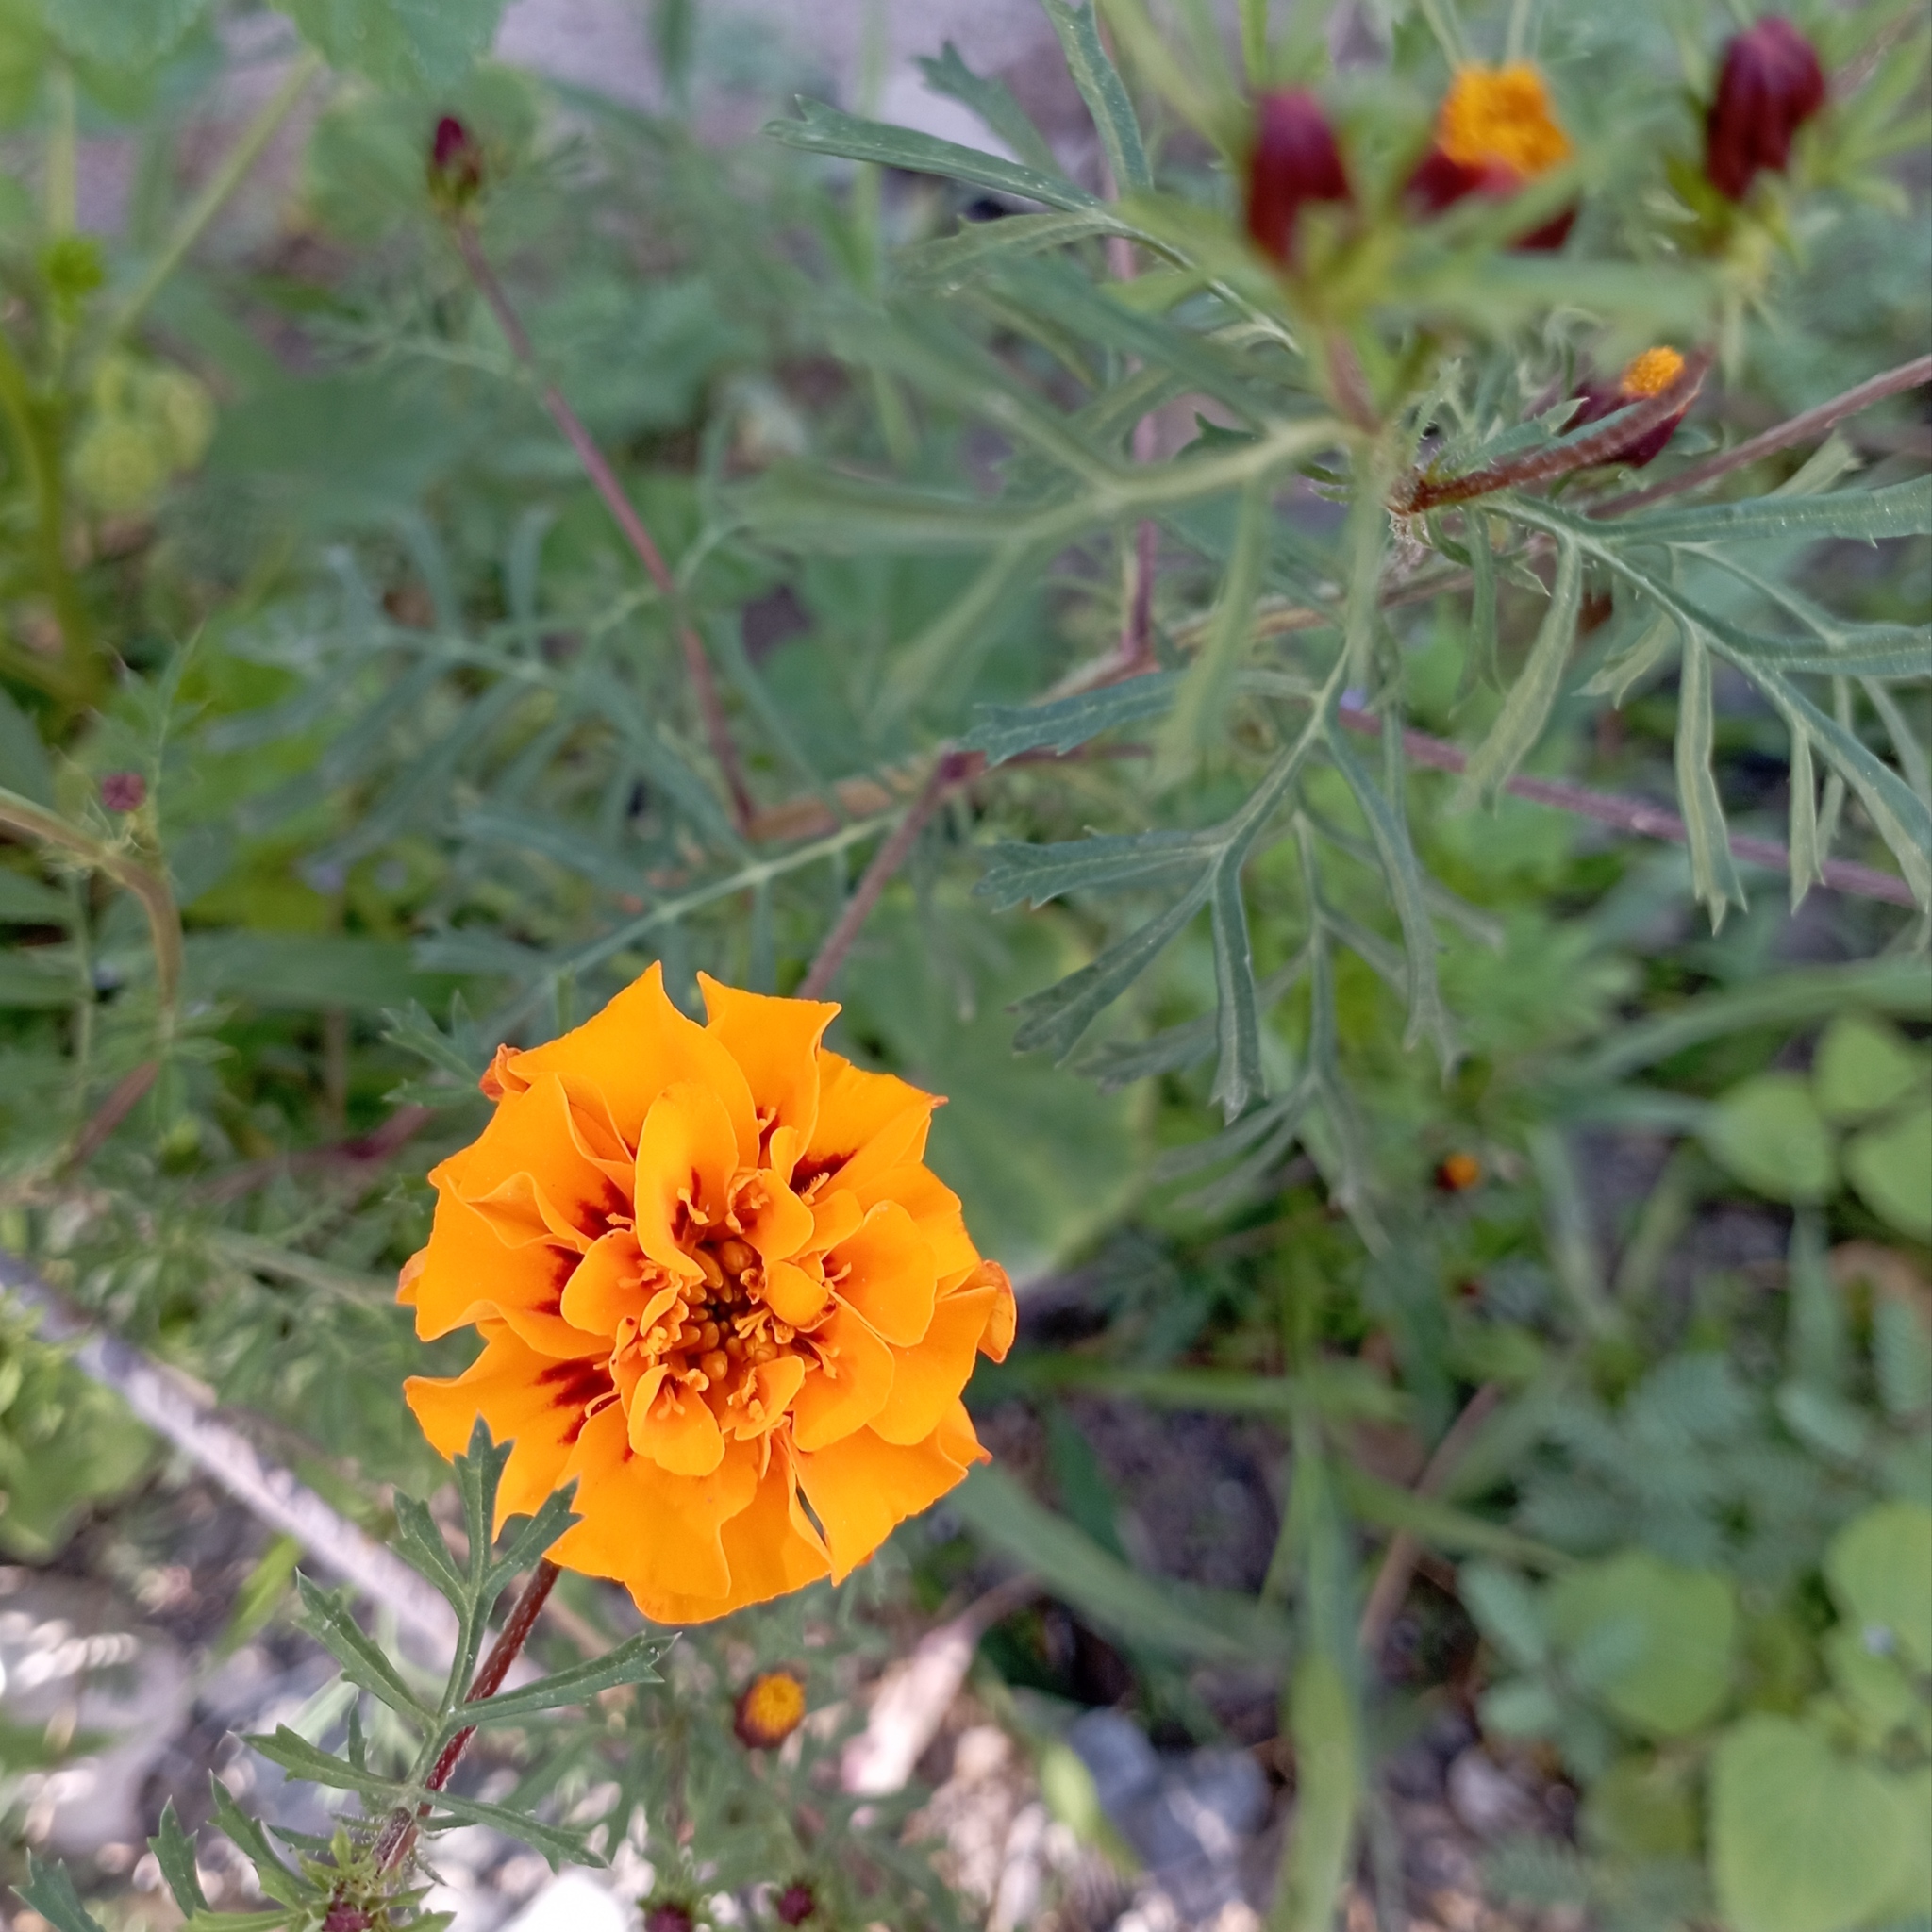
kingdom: Plantae
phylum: Tracheophyta
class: Magnoliopsida
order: Asterales
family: Asteraceae
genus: Tagetes
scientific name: Tagetes erecta
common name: African marigold
